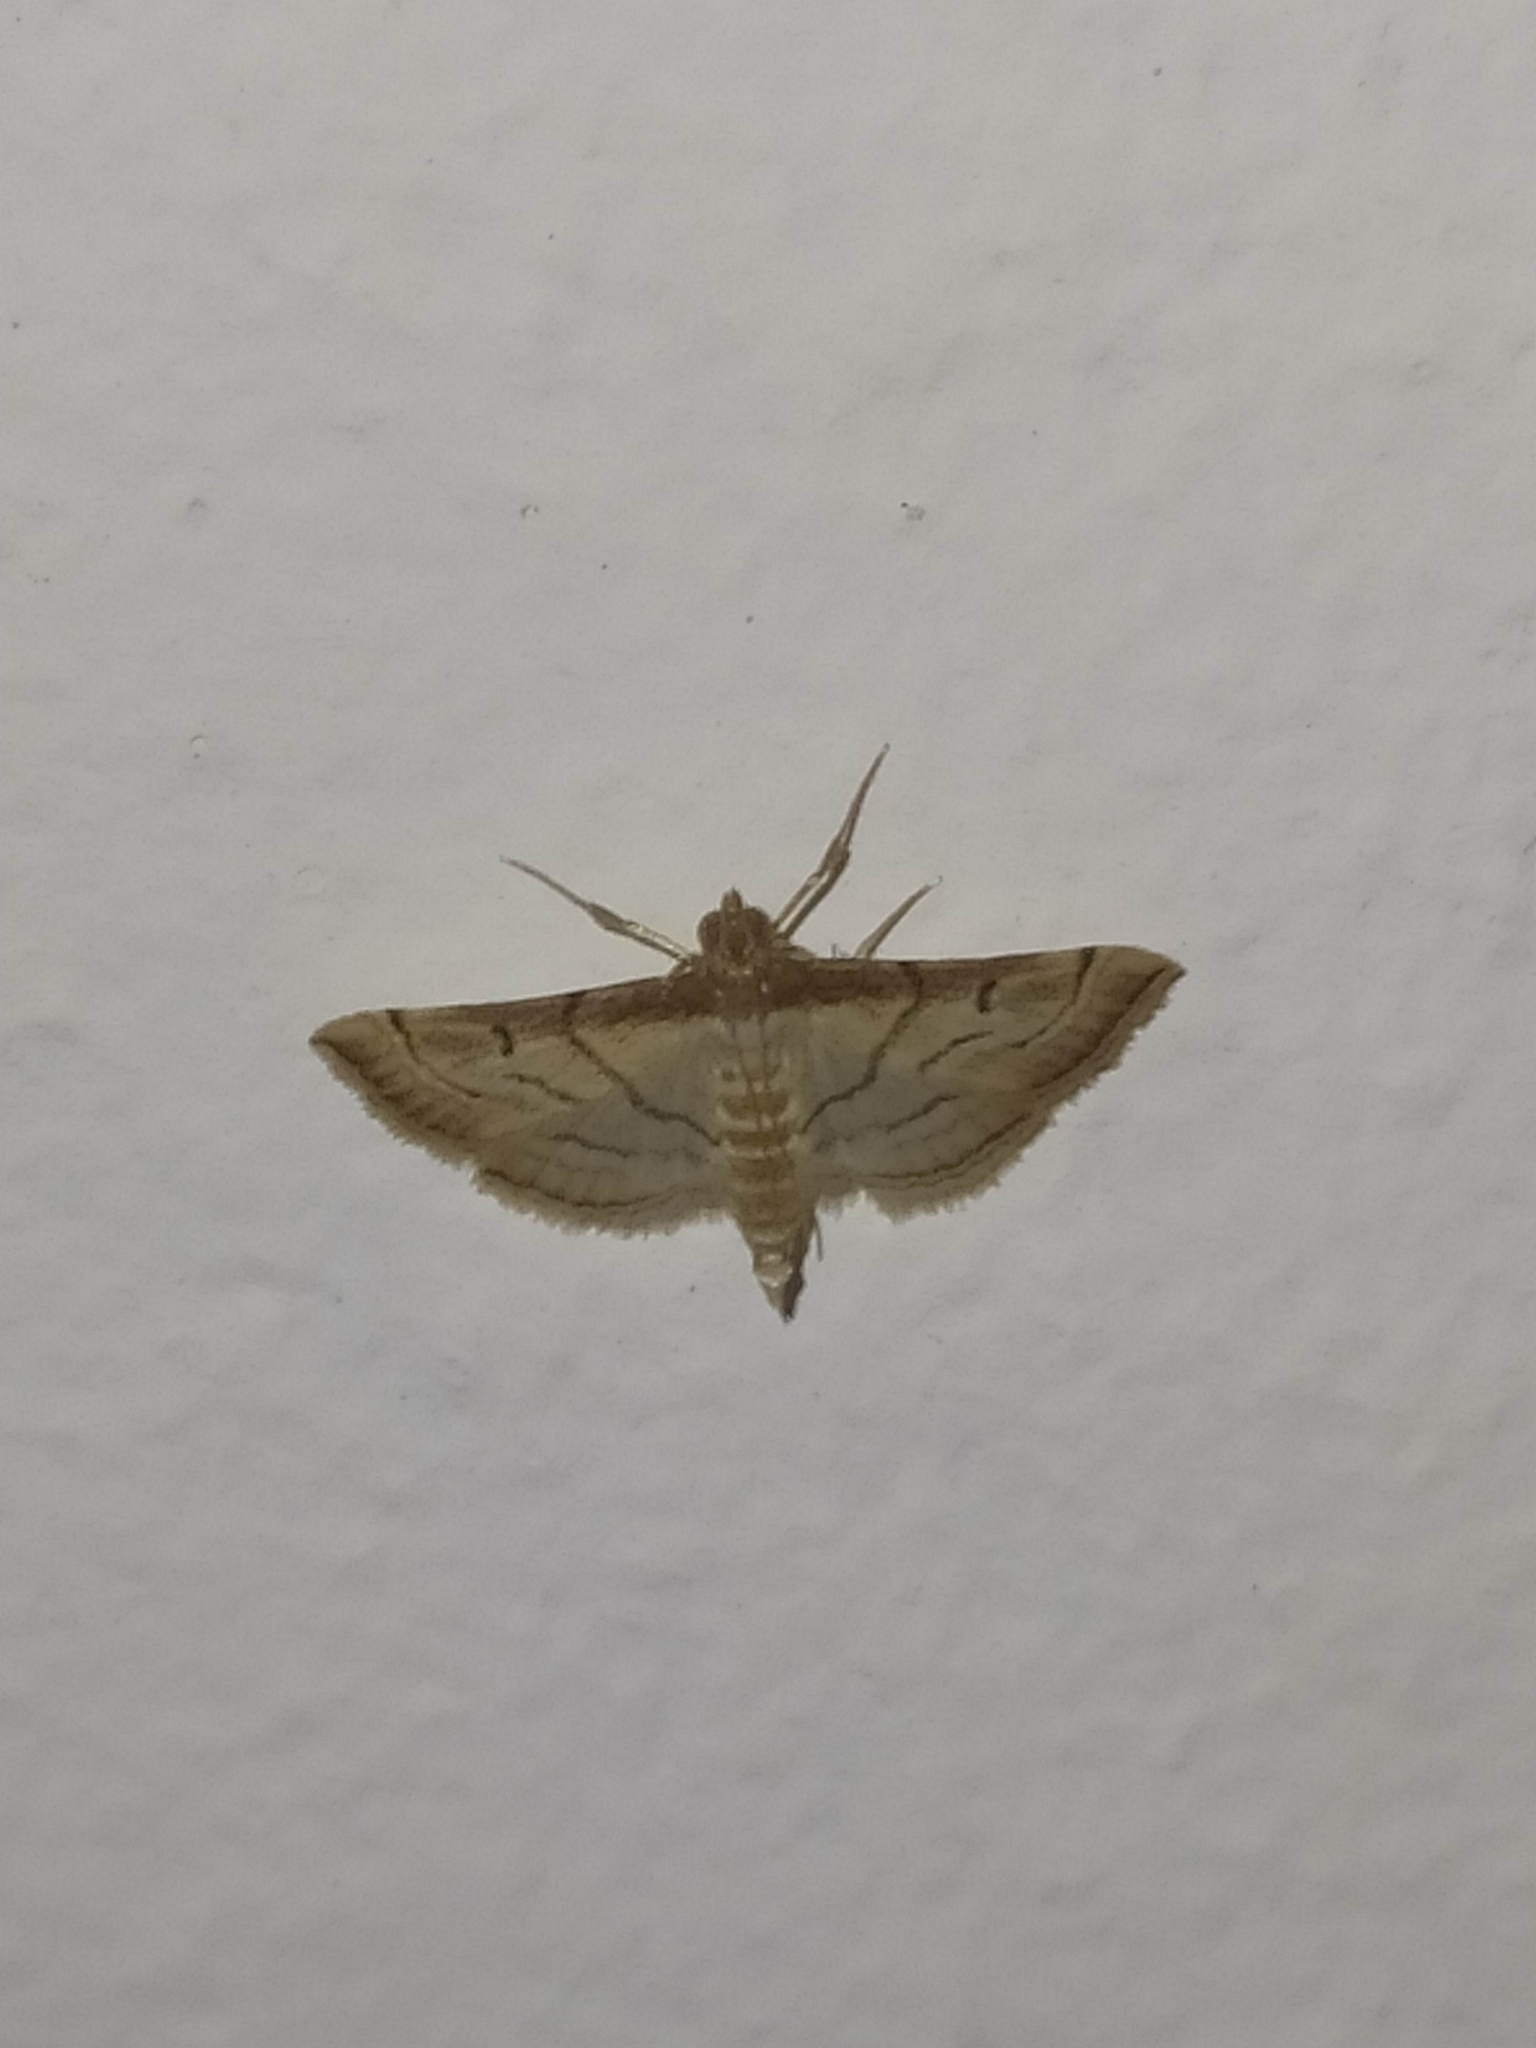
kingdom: Animalia
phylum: Arthropoda
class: Insecta
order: Lepidoptera
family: Crambidae
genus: Cnaphalocrocis
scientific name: Cnaphalocrocis Marasmia trapezalis
